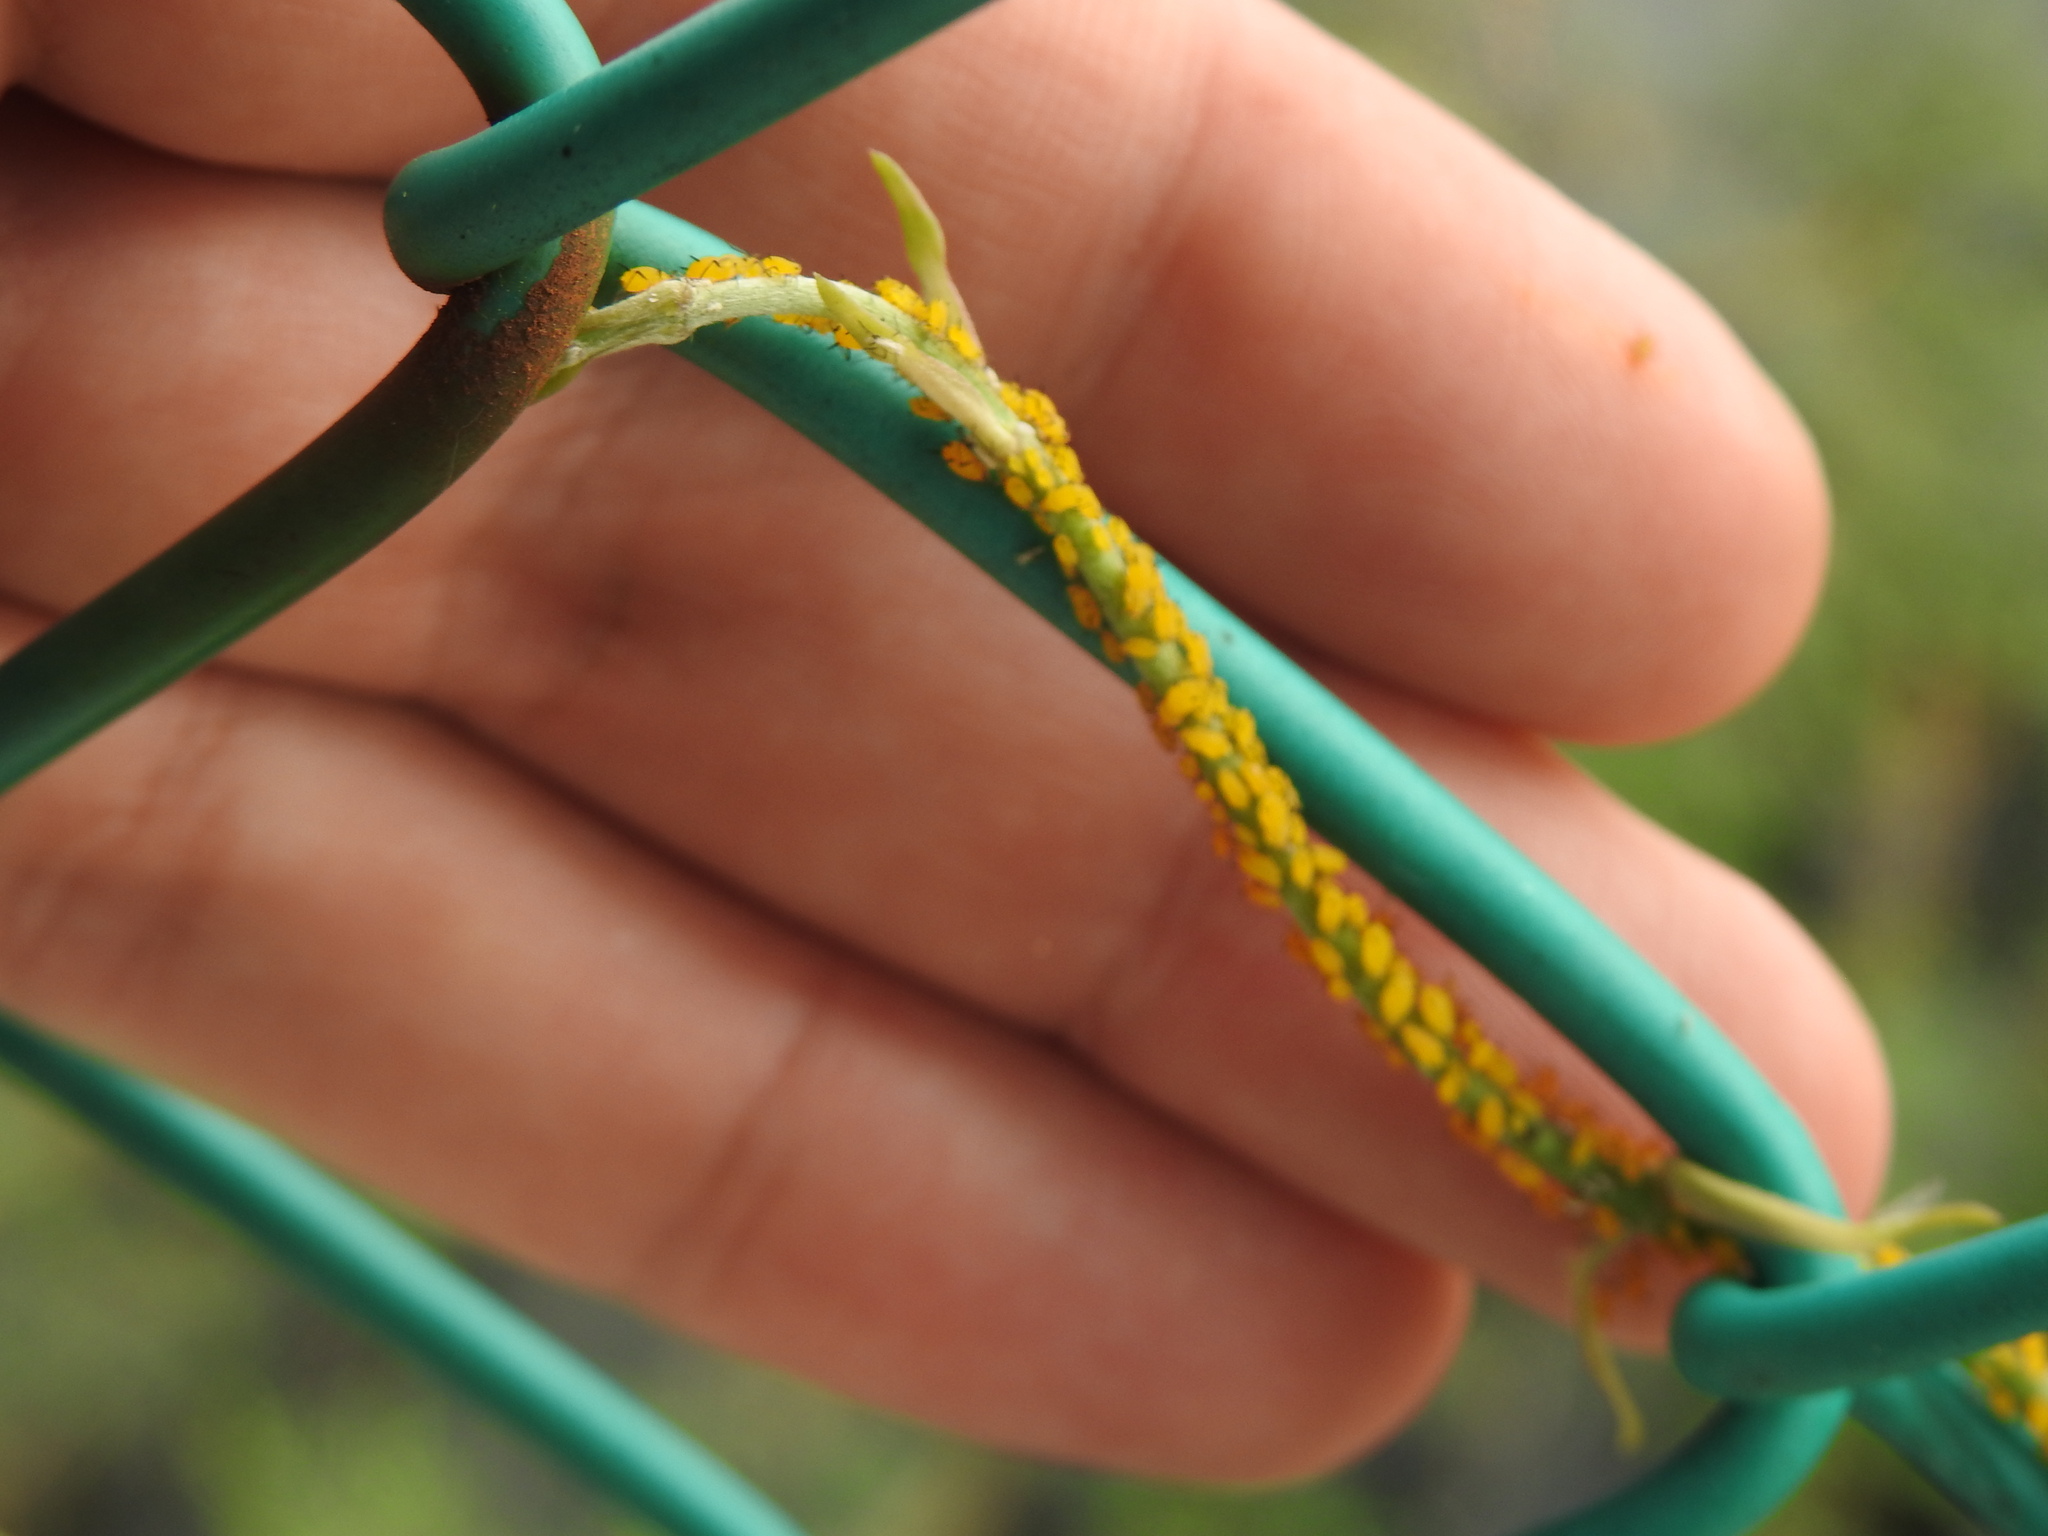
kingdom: Animalia
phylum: Arthropoda
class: Insecta
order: Hemiptera
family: Aphididae
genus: Aphis
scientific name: Aphis nerii
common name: Oleander aphid
